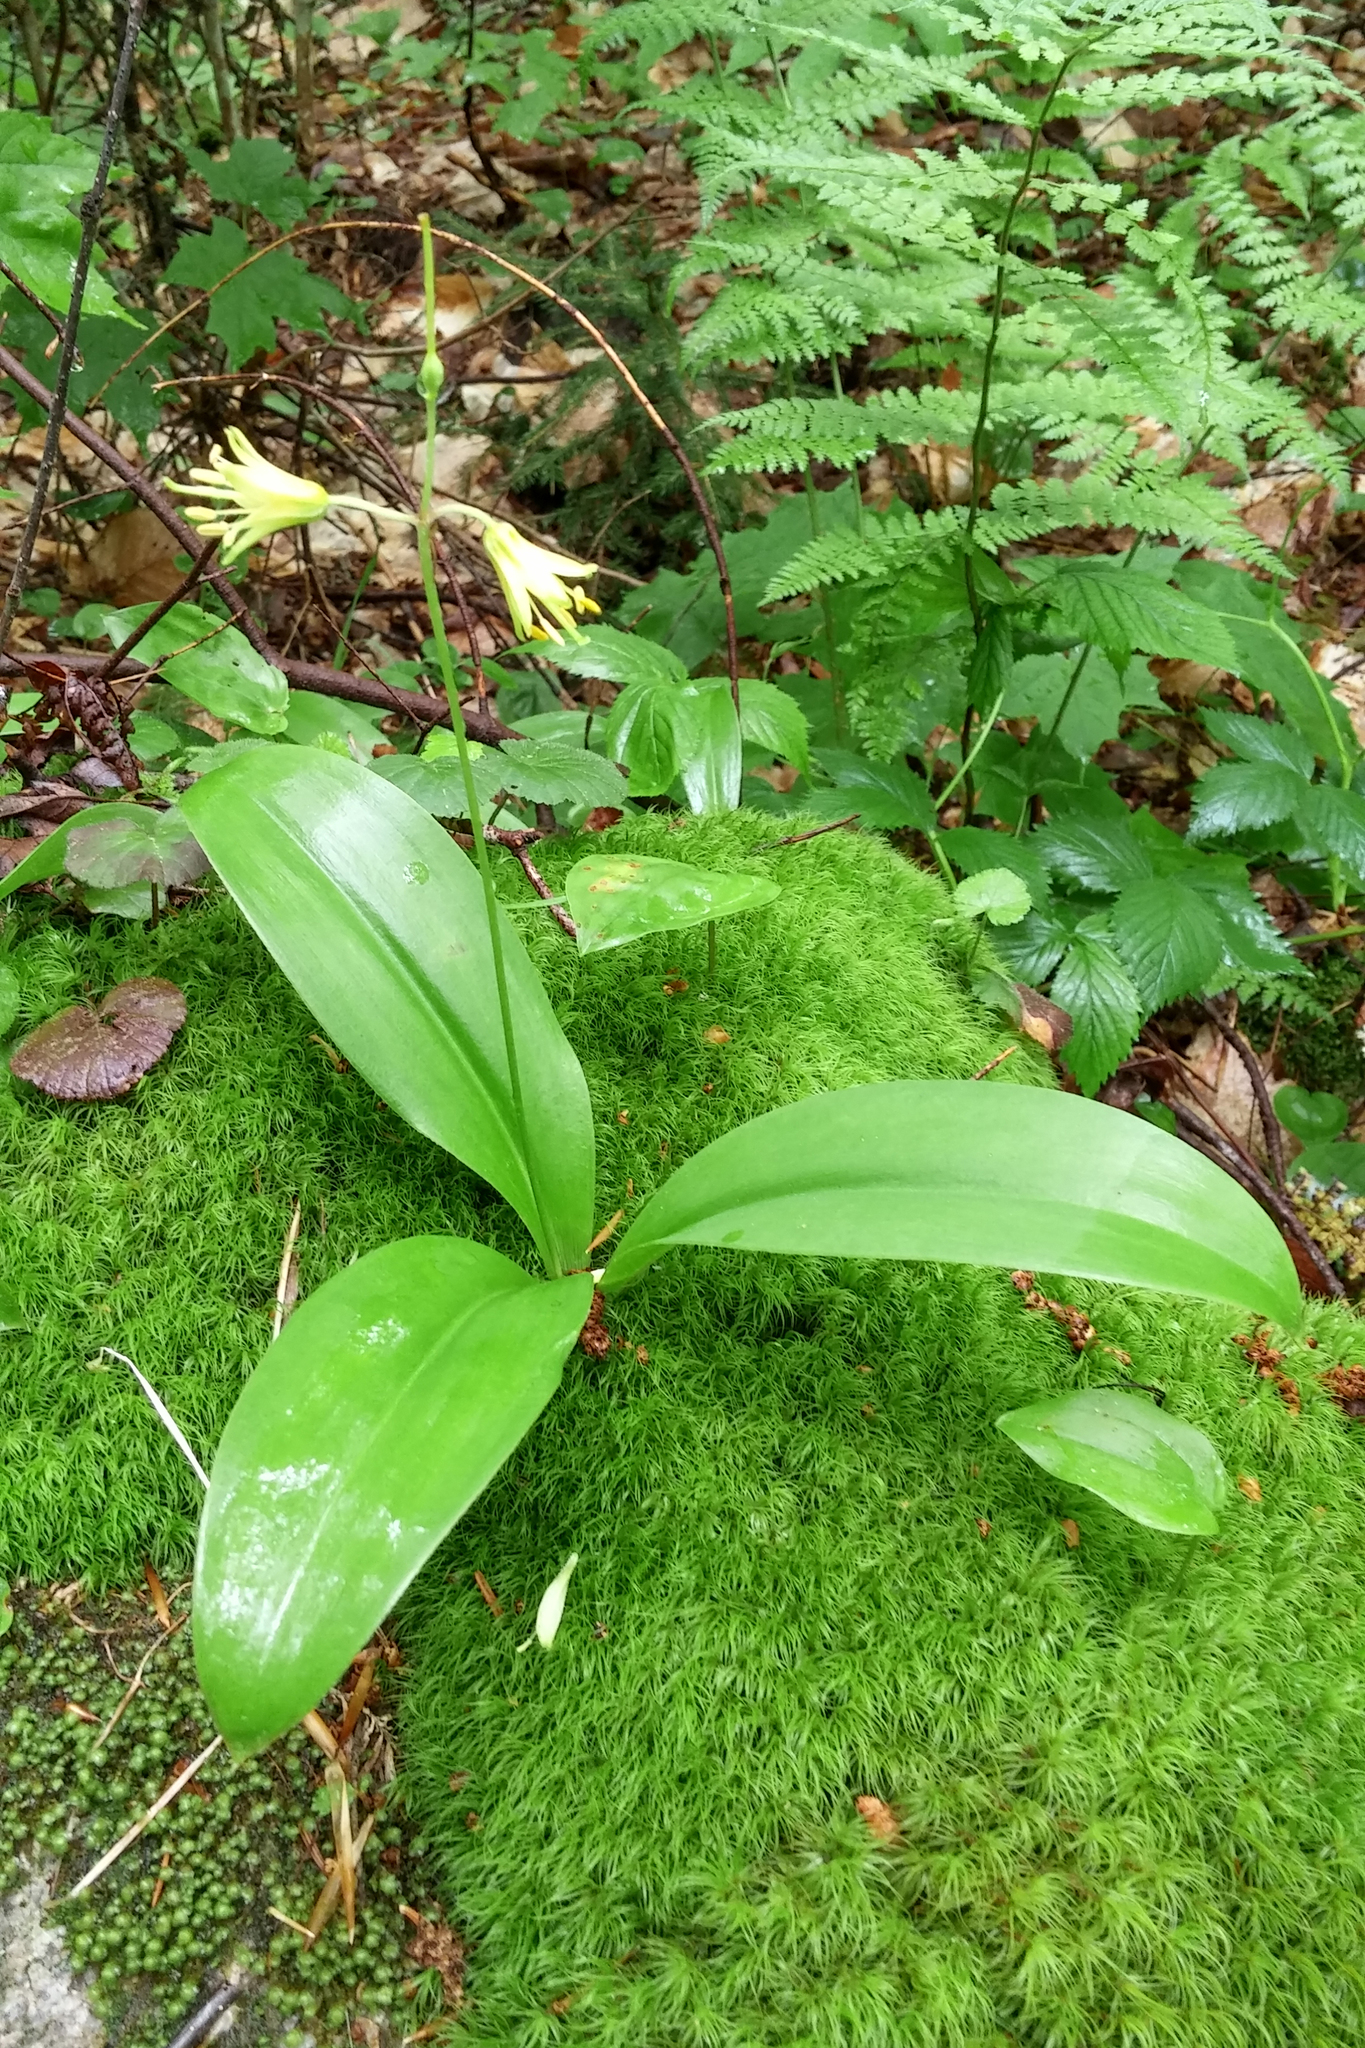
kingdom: Plantae
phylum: Tracheophyta
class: Liliopsida
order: Liliales
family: Liliaceae
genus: Clintonia
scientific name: Clintonia borealis
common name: Yellow clintonia
